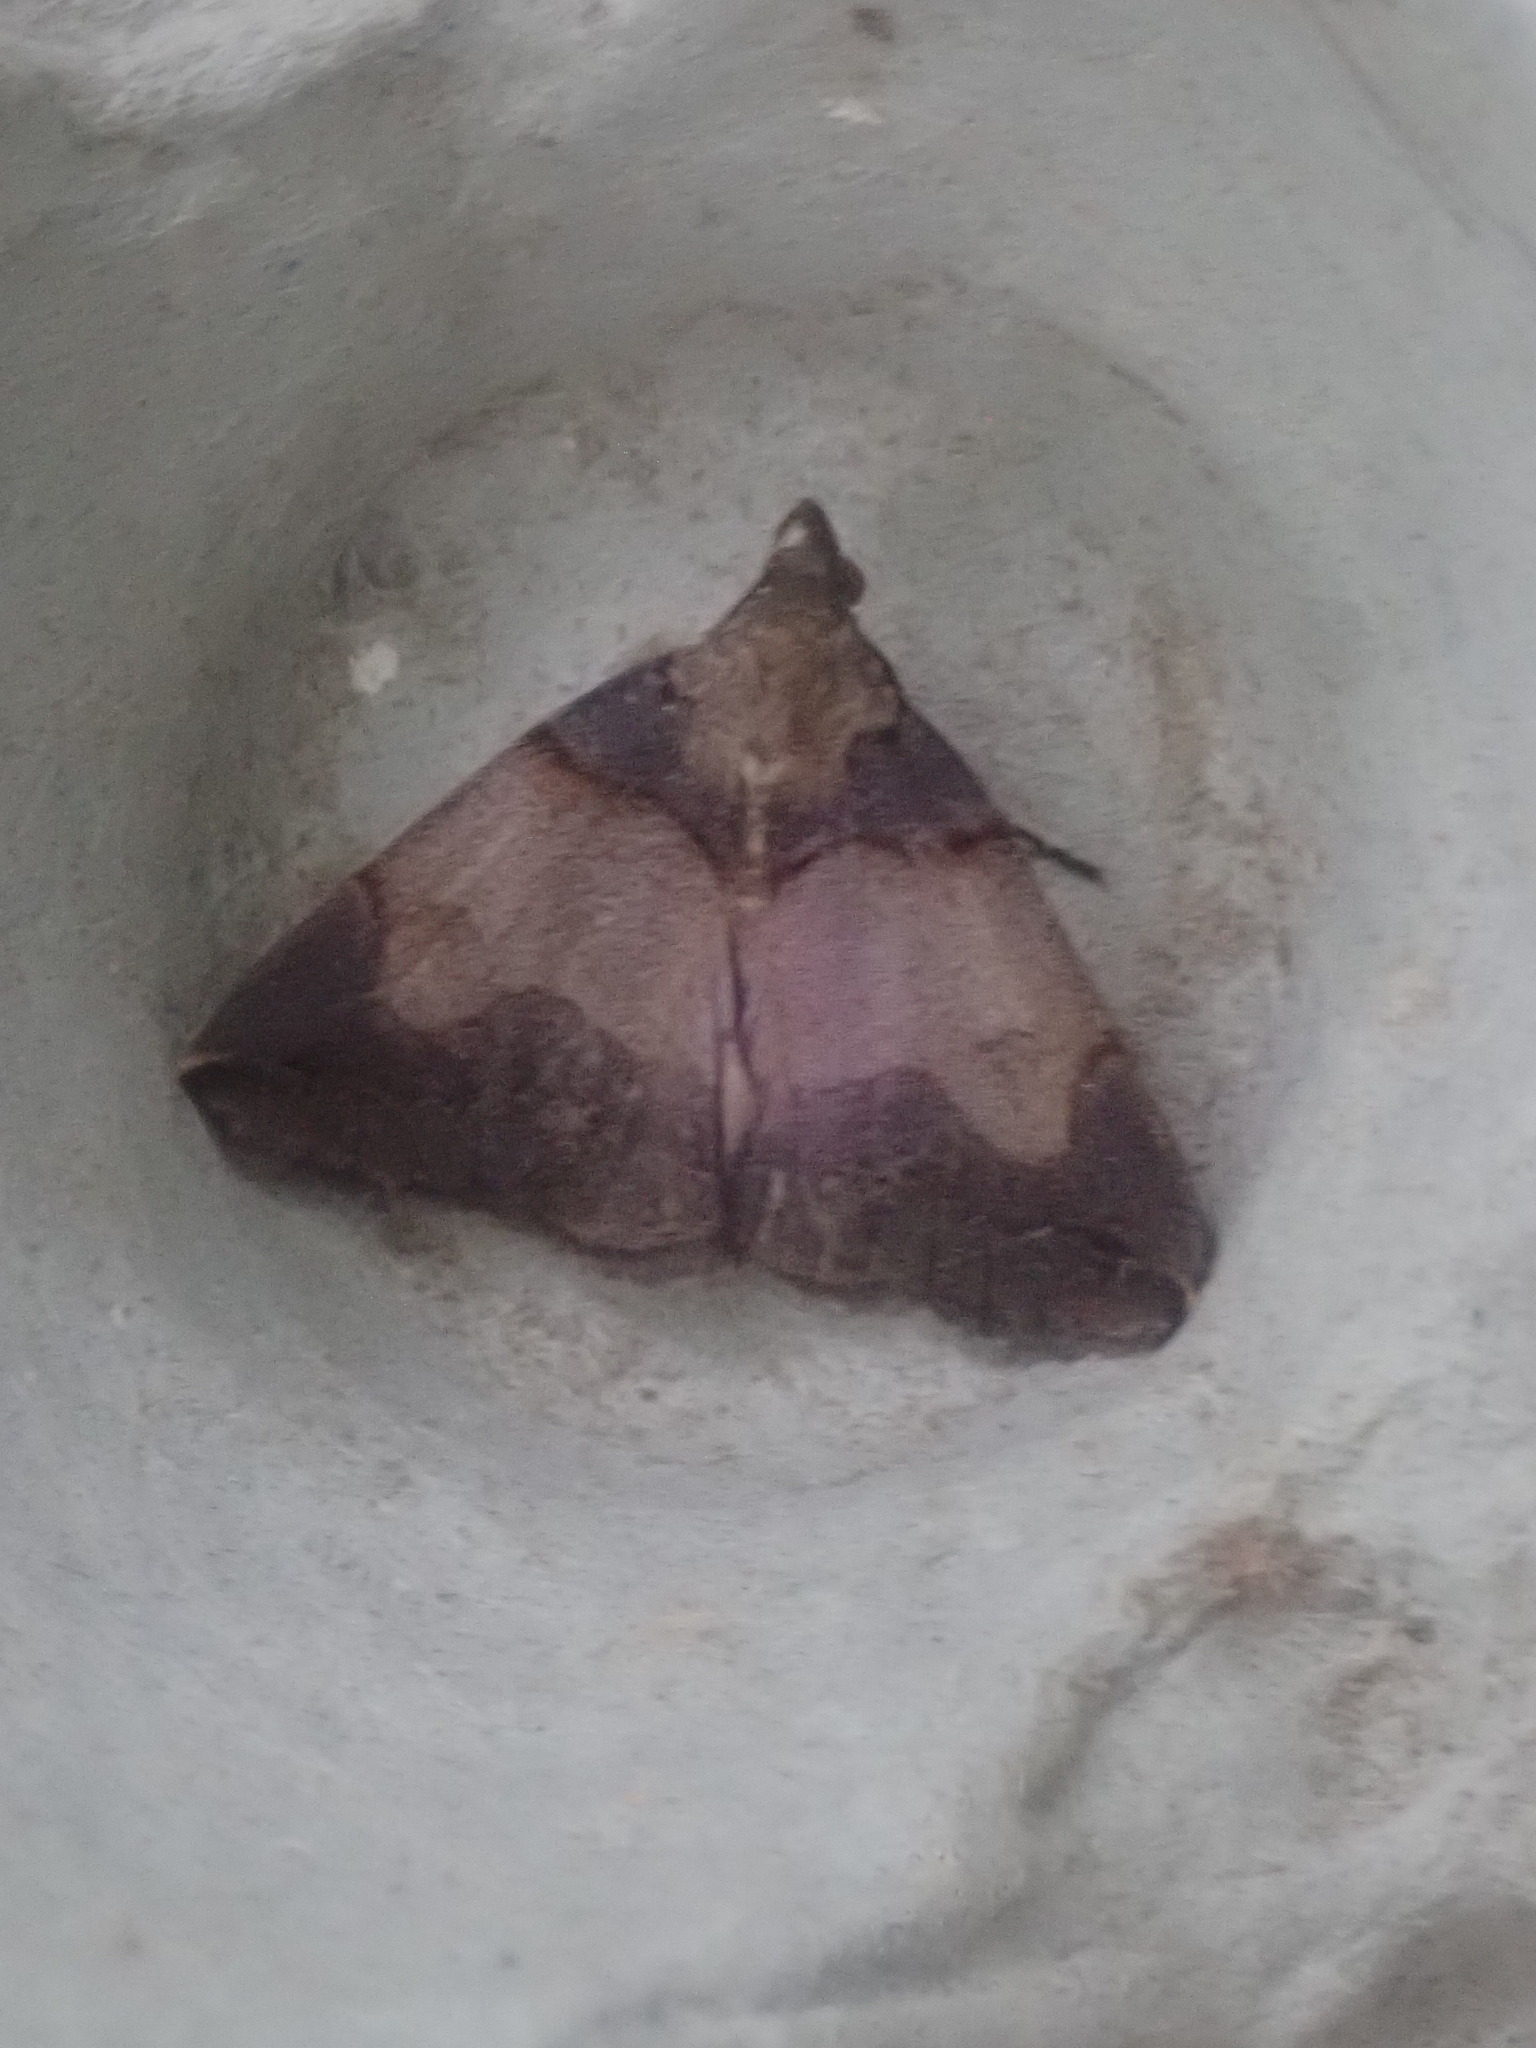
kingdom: Animalia
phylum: Arthropoda
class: Insecta
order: Lepidoptera
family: Erebidae
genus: Zanclognatha
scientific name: Zanclognatha laevigata
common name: Variable fan-foot
